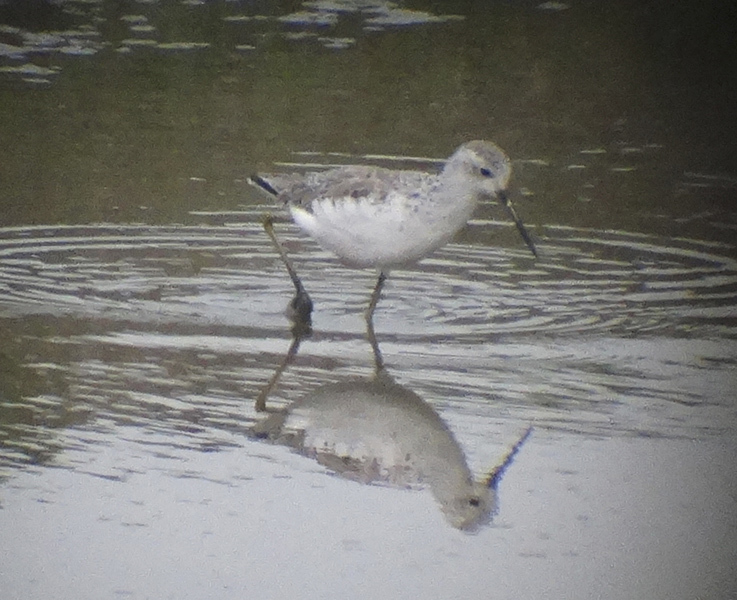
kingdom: Animalia
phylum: Chordata
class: Aves
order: Charadriiformes
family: Scolopacidae
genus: Tringa
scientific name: Tringa stagnatilis
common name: Marsh sandpiper
